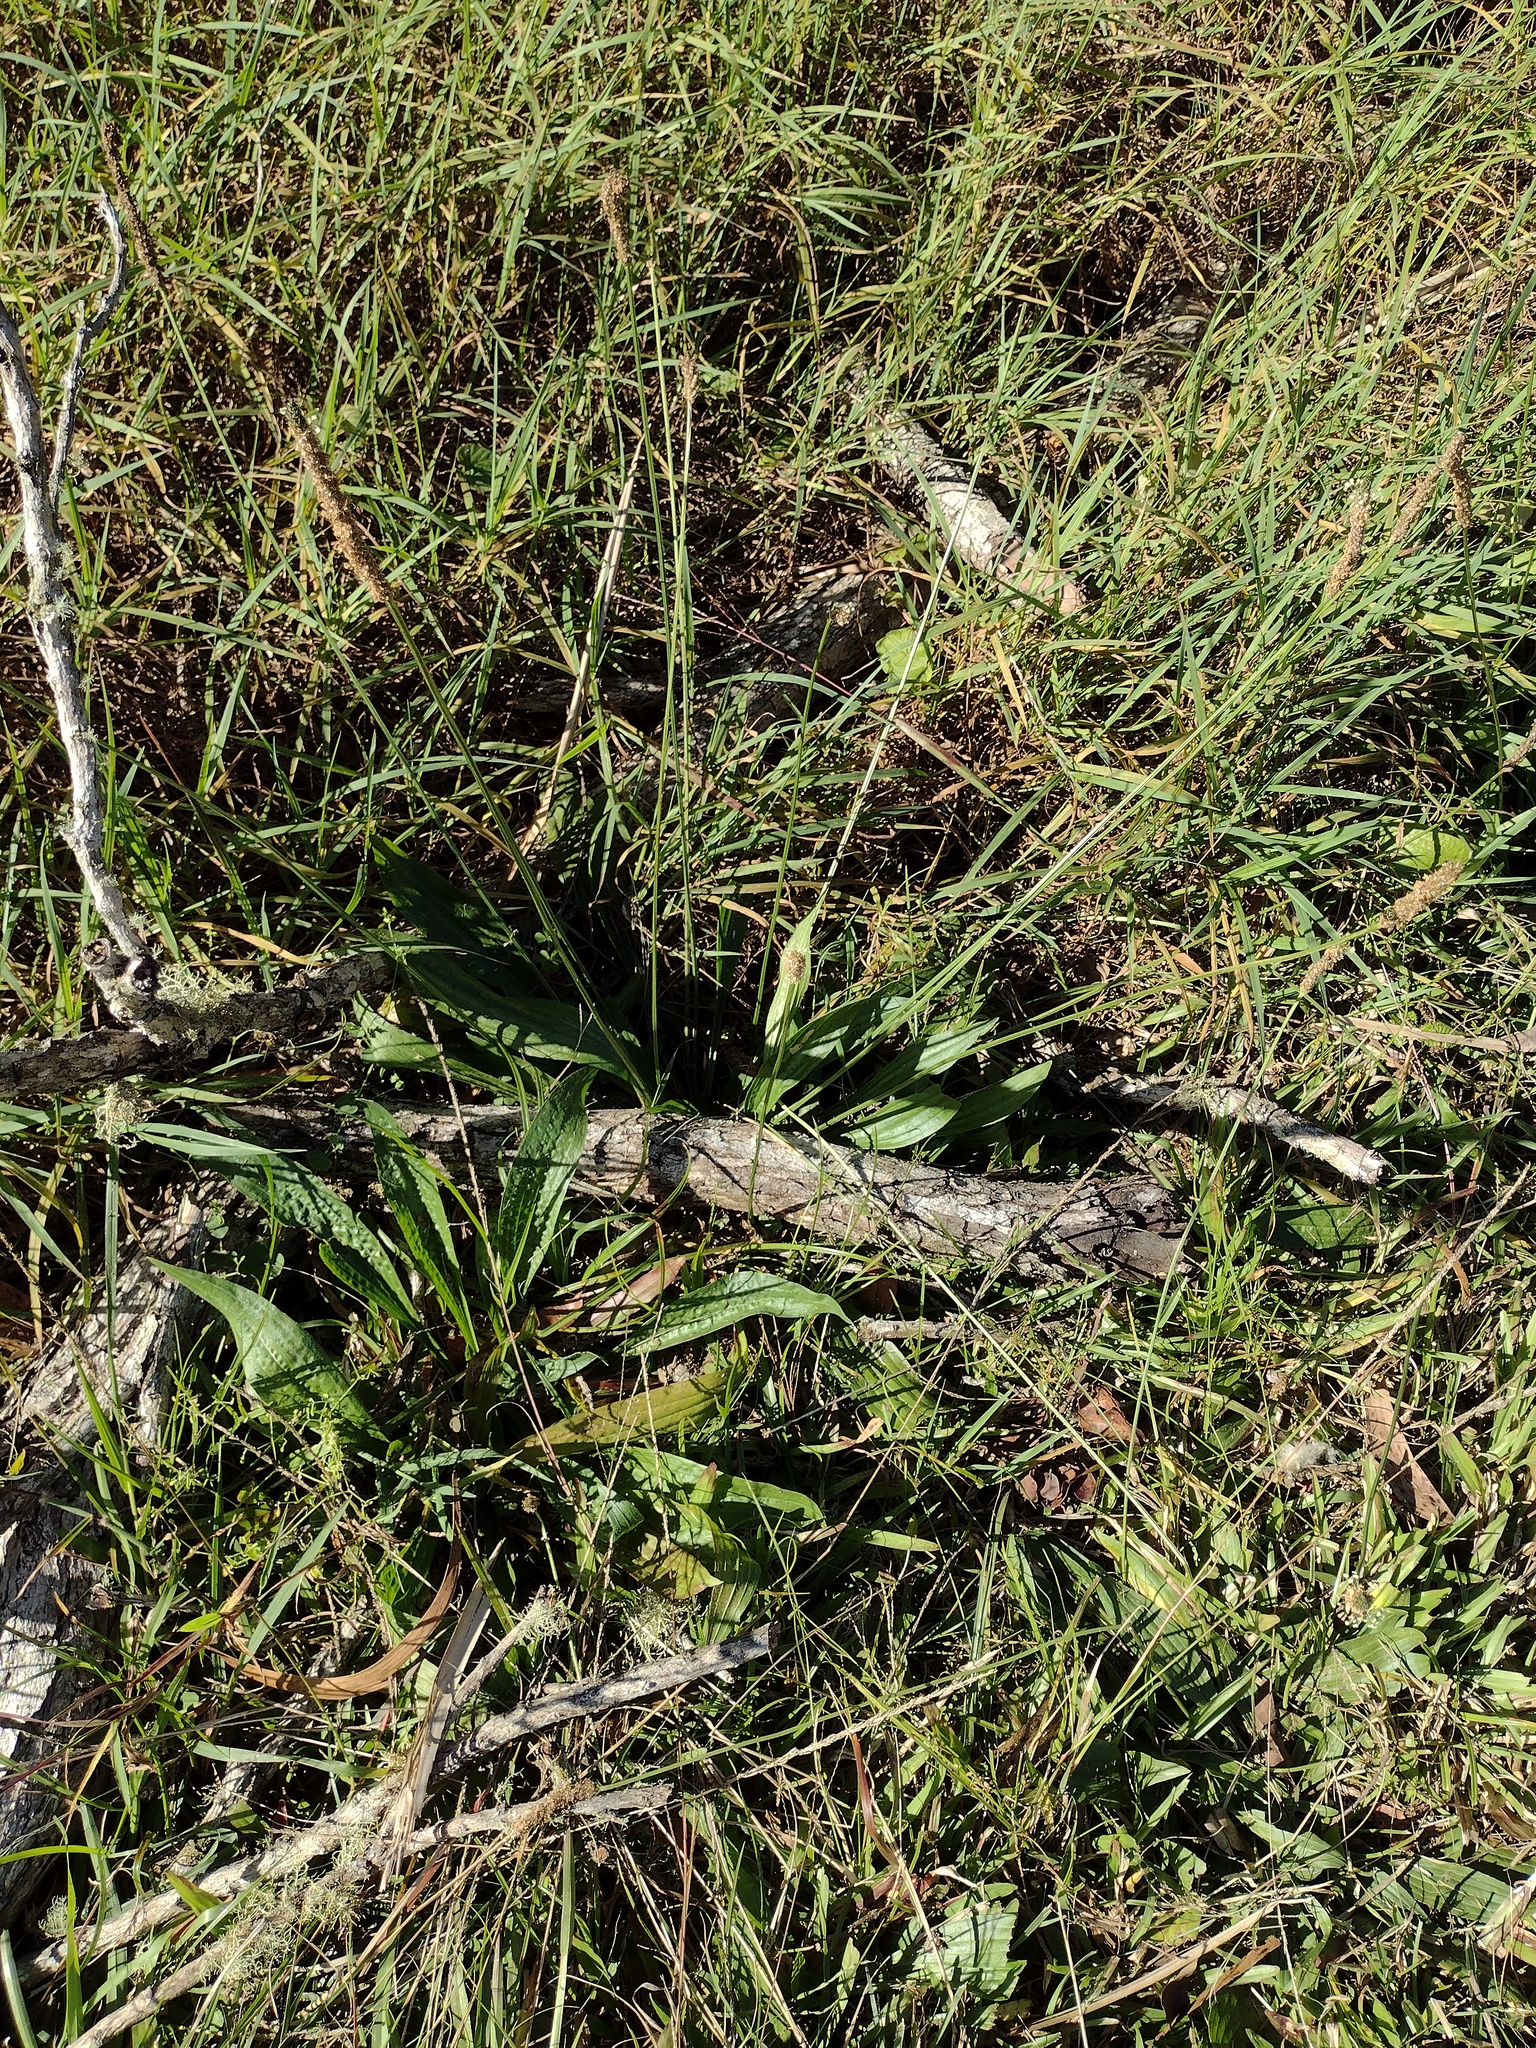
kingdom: Plantae
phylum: Tracheophyta
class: Magnoliopsida
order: Lamiales
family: Plantaginaceae
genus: Plantago
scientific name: Plantago lanceolata
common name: Ribwort plantain
